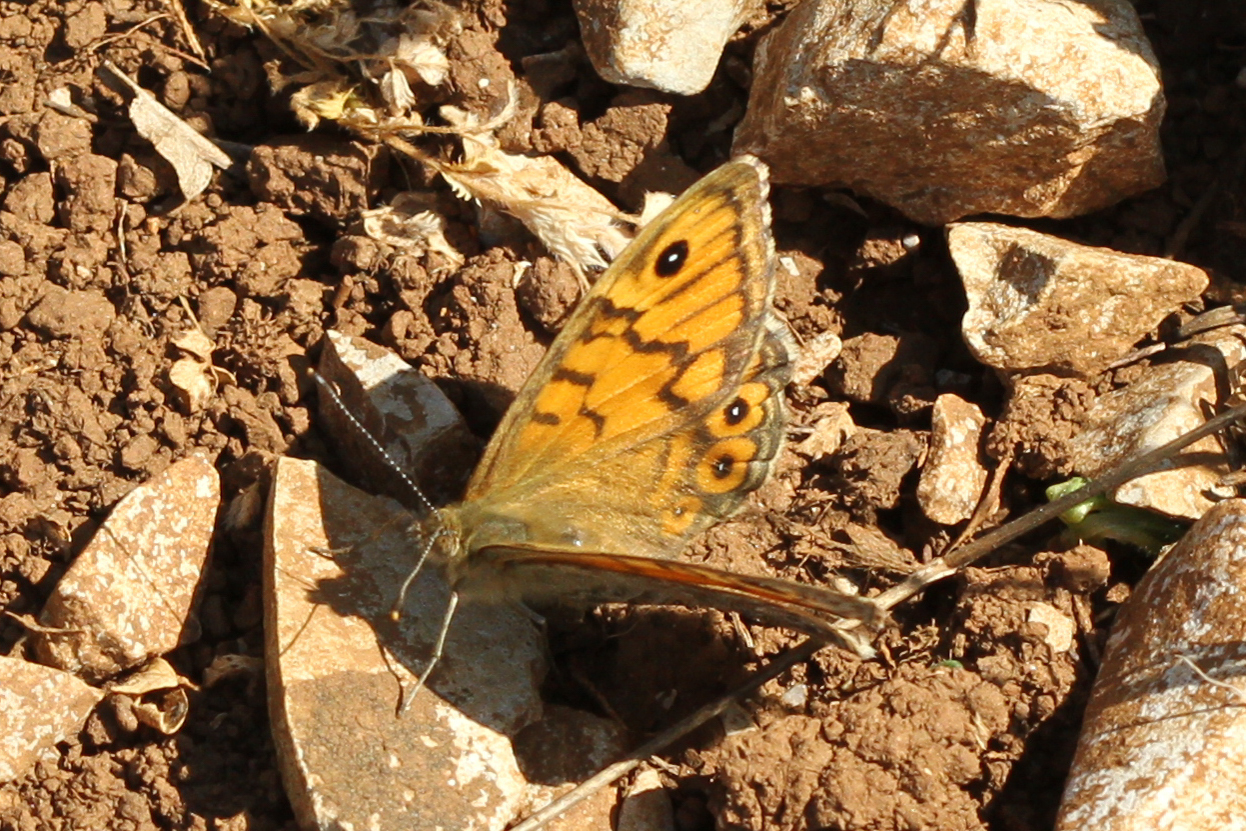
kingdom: Animalia
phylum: Arthropoda
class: Insecta
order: Lepidoptera
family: Nymphalidae
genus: Pararge
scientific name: Pararge Lasiommata megera
